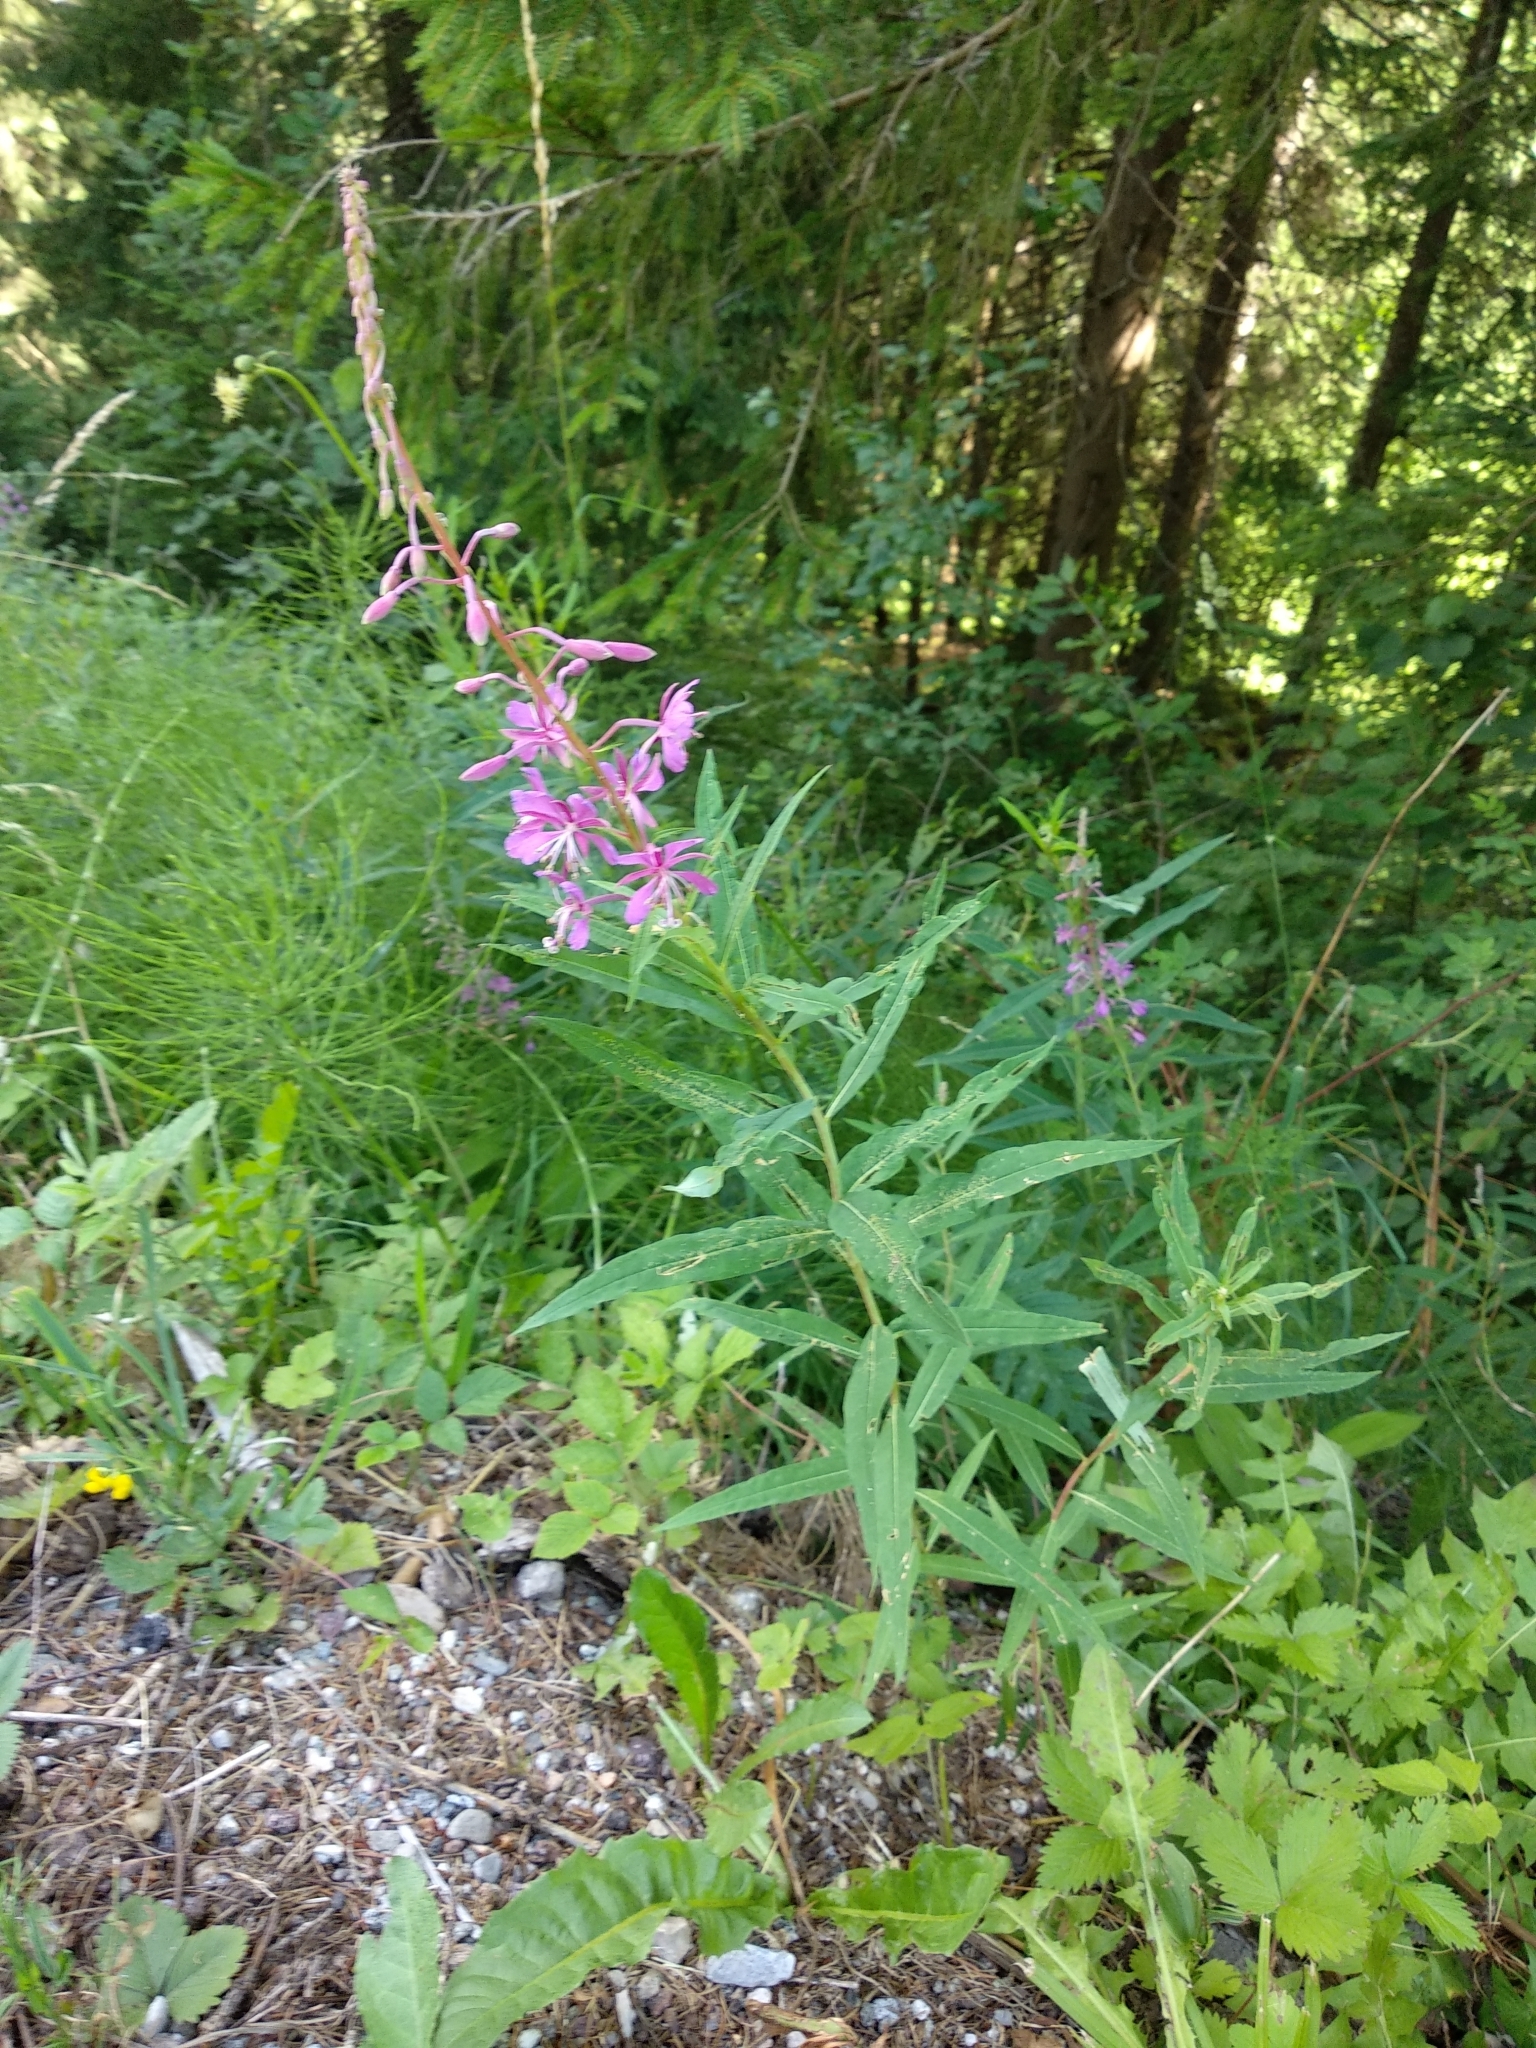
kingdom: Plantae
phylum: Tracheophyta
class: Magnoliopsida
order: Myrtales
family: Onagraceae
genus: Chamaenerion
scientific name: Chamaenerion angustifolium
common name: Fireweed
